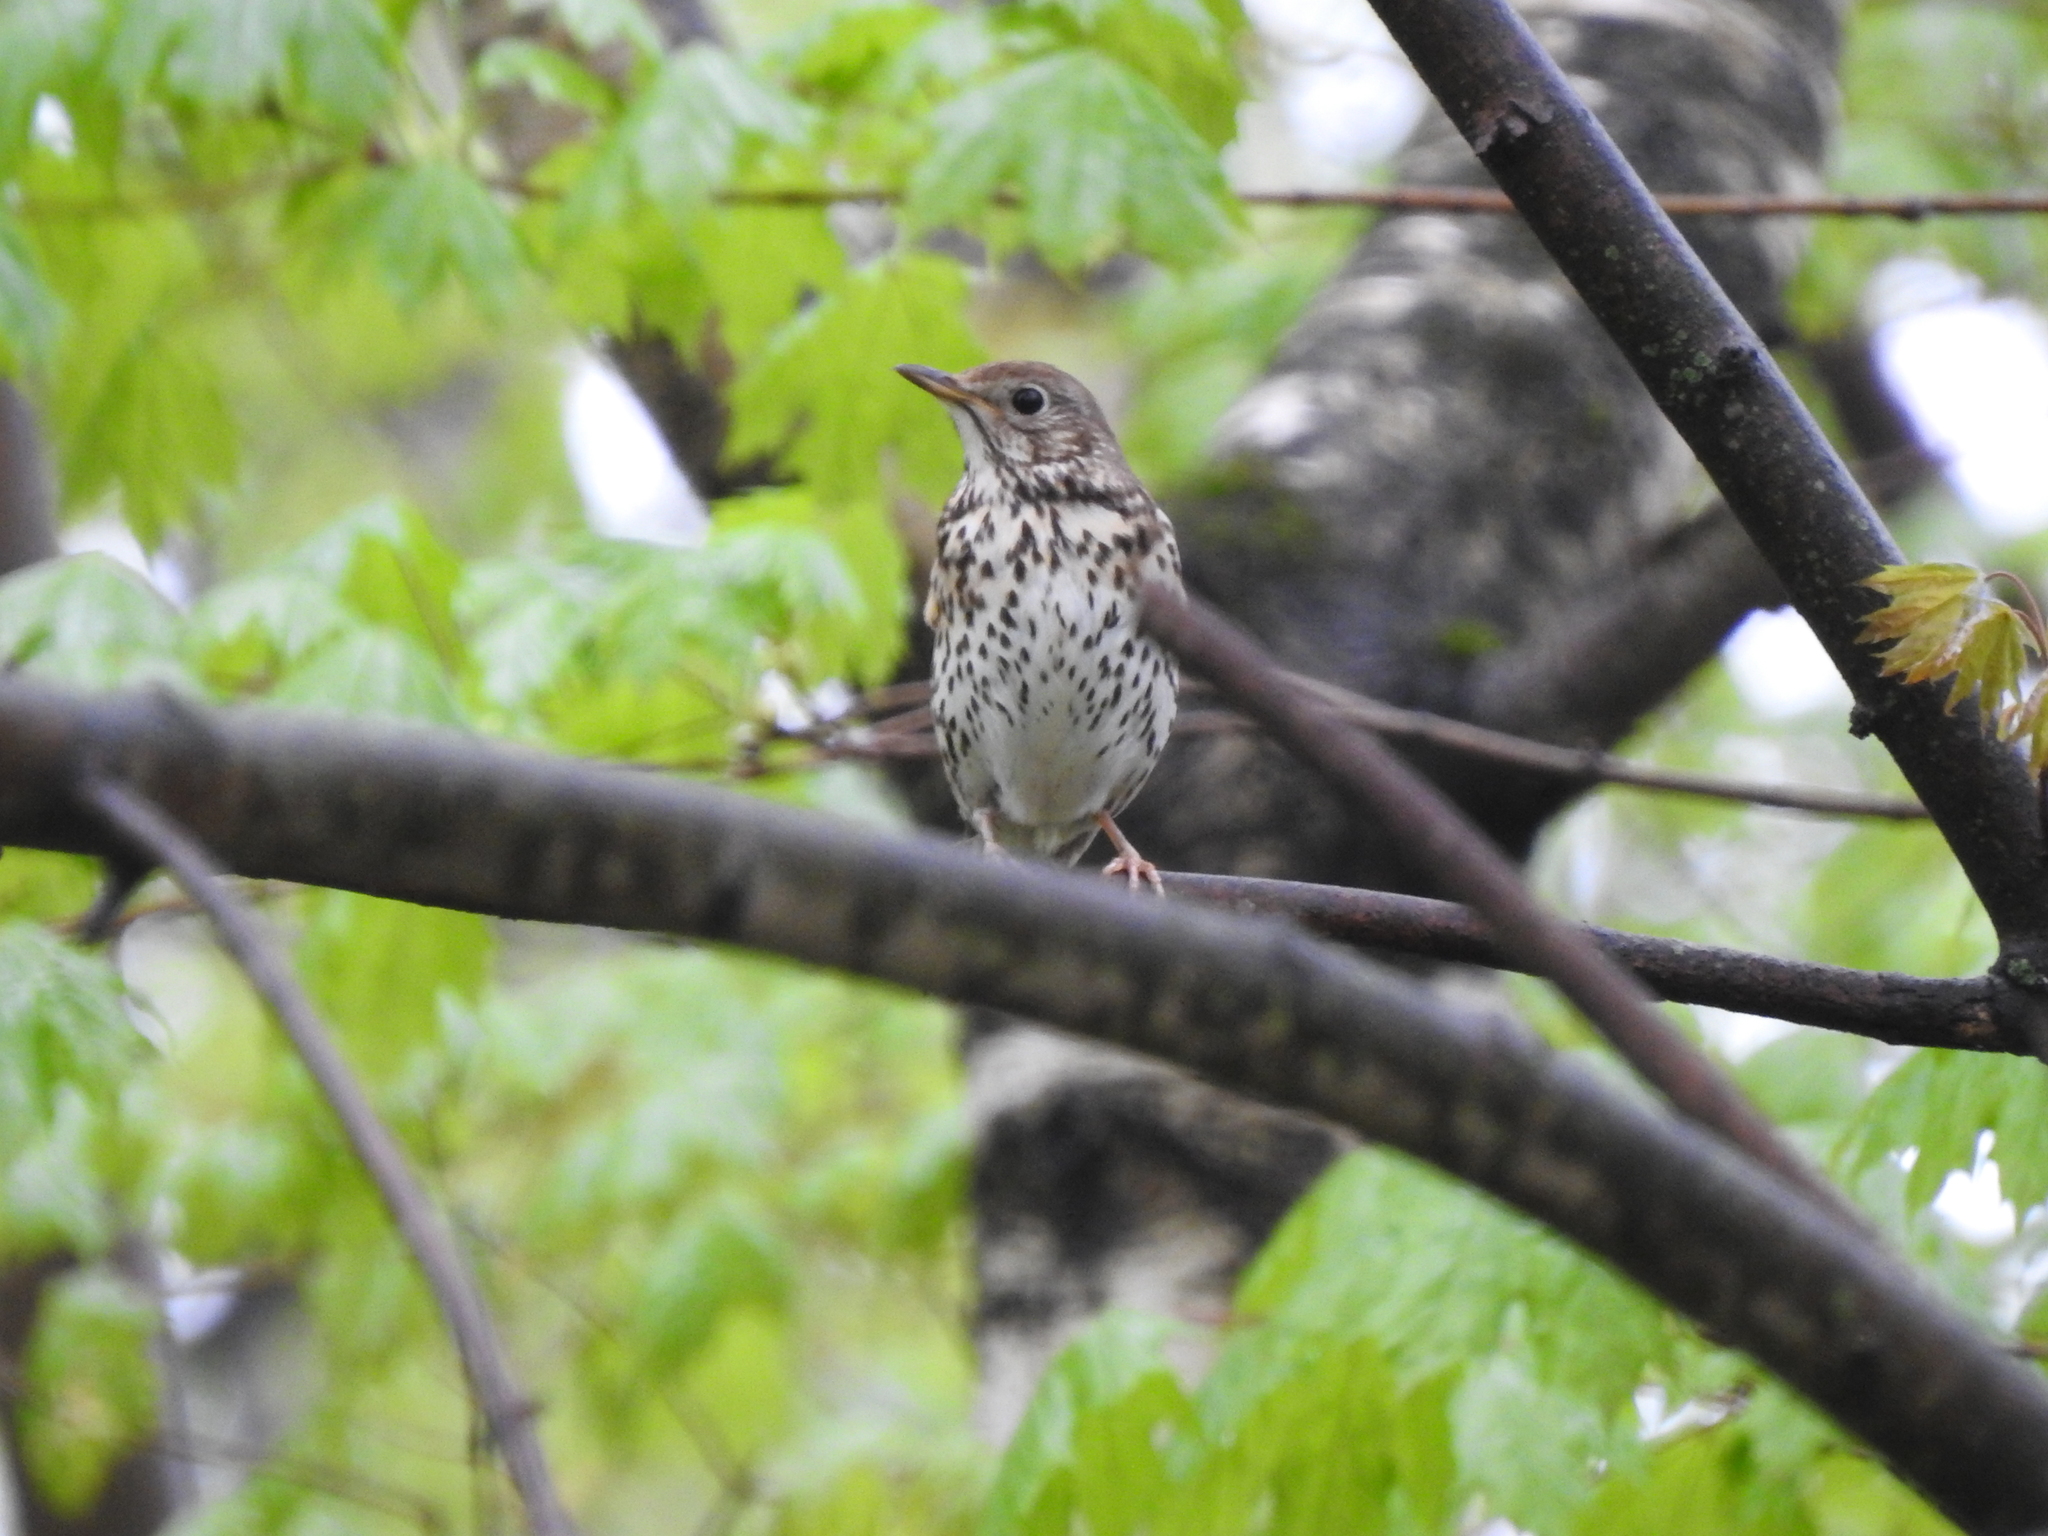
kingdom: Animalia
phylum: Chordata
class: Aves
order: Passeriformes
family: Turdidae
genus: Turdus
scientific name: Turdus philomelos
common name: Song thrush
